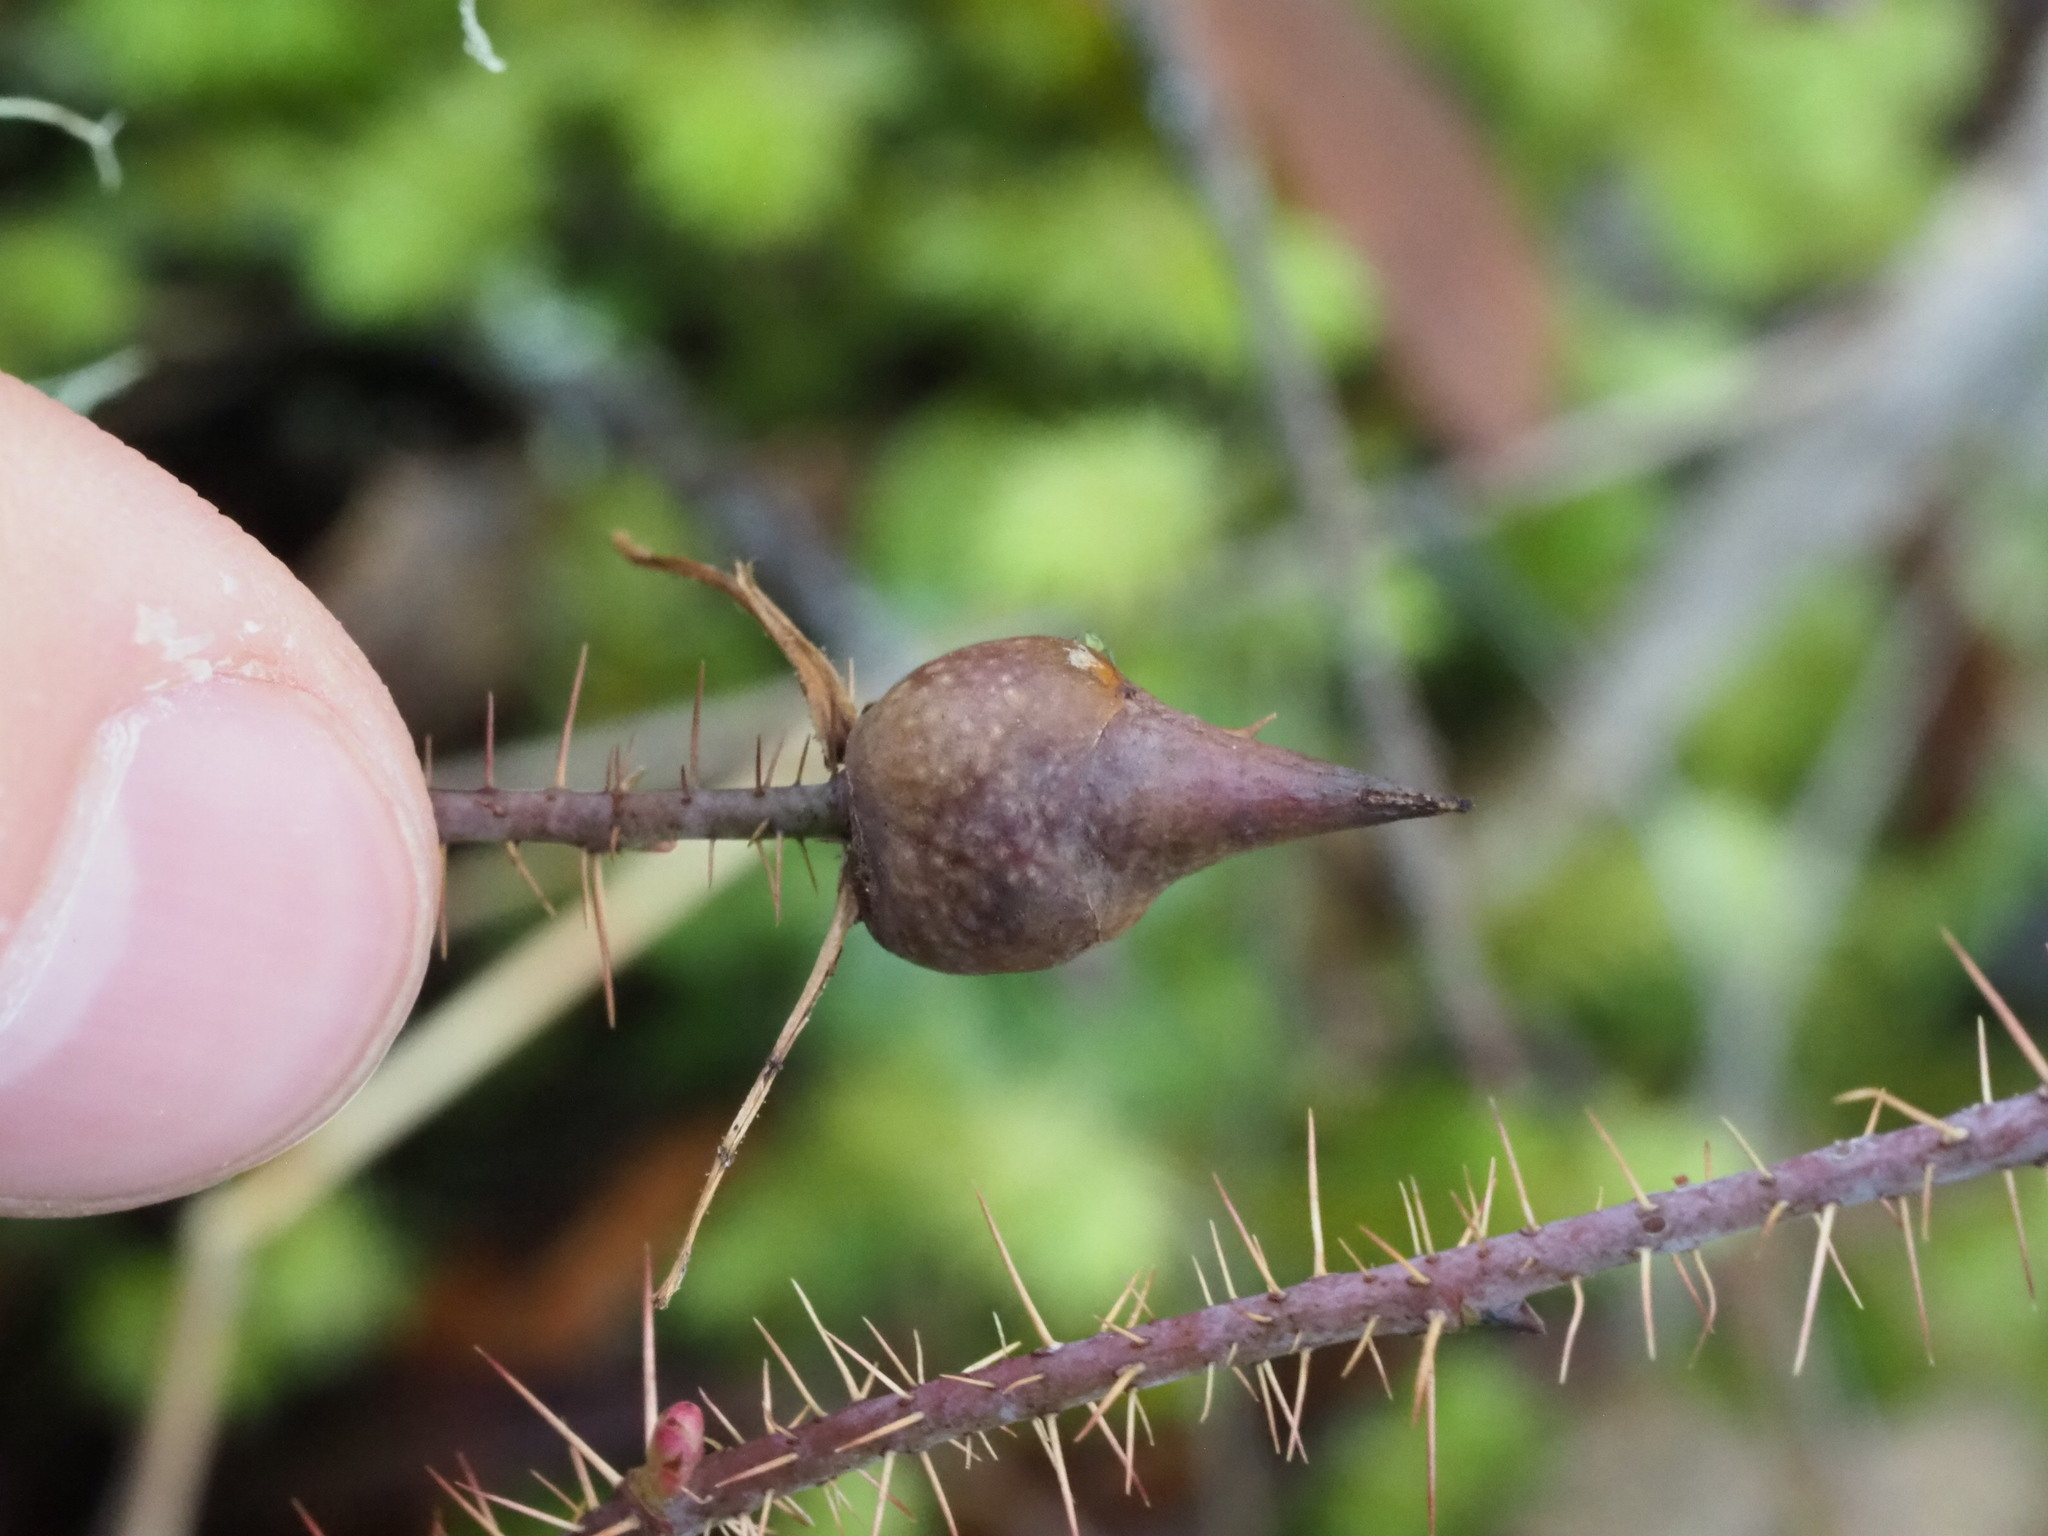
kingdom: Animalia
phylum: Arthropoda
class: Insecta
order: Hymenoptera
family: Cynipidae
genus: Diplolepis
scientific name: Diplolepis
